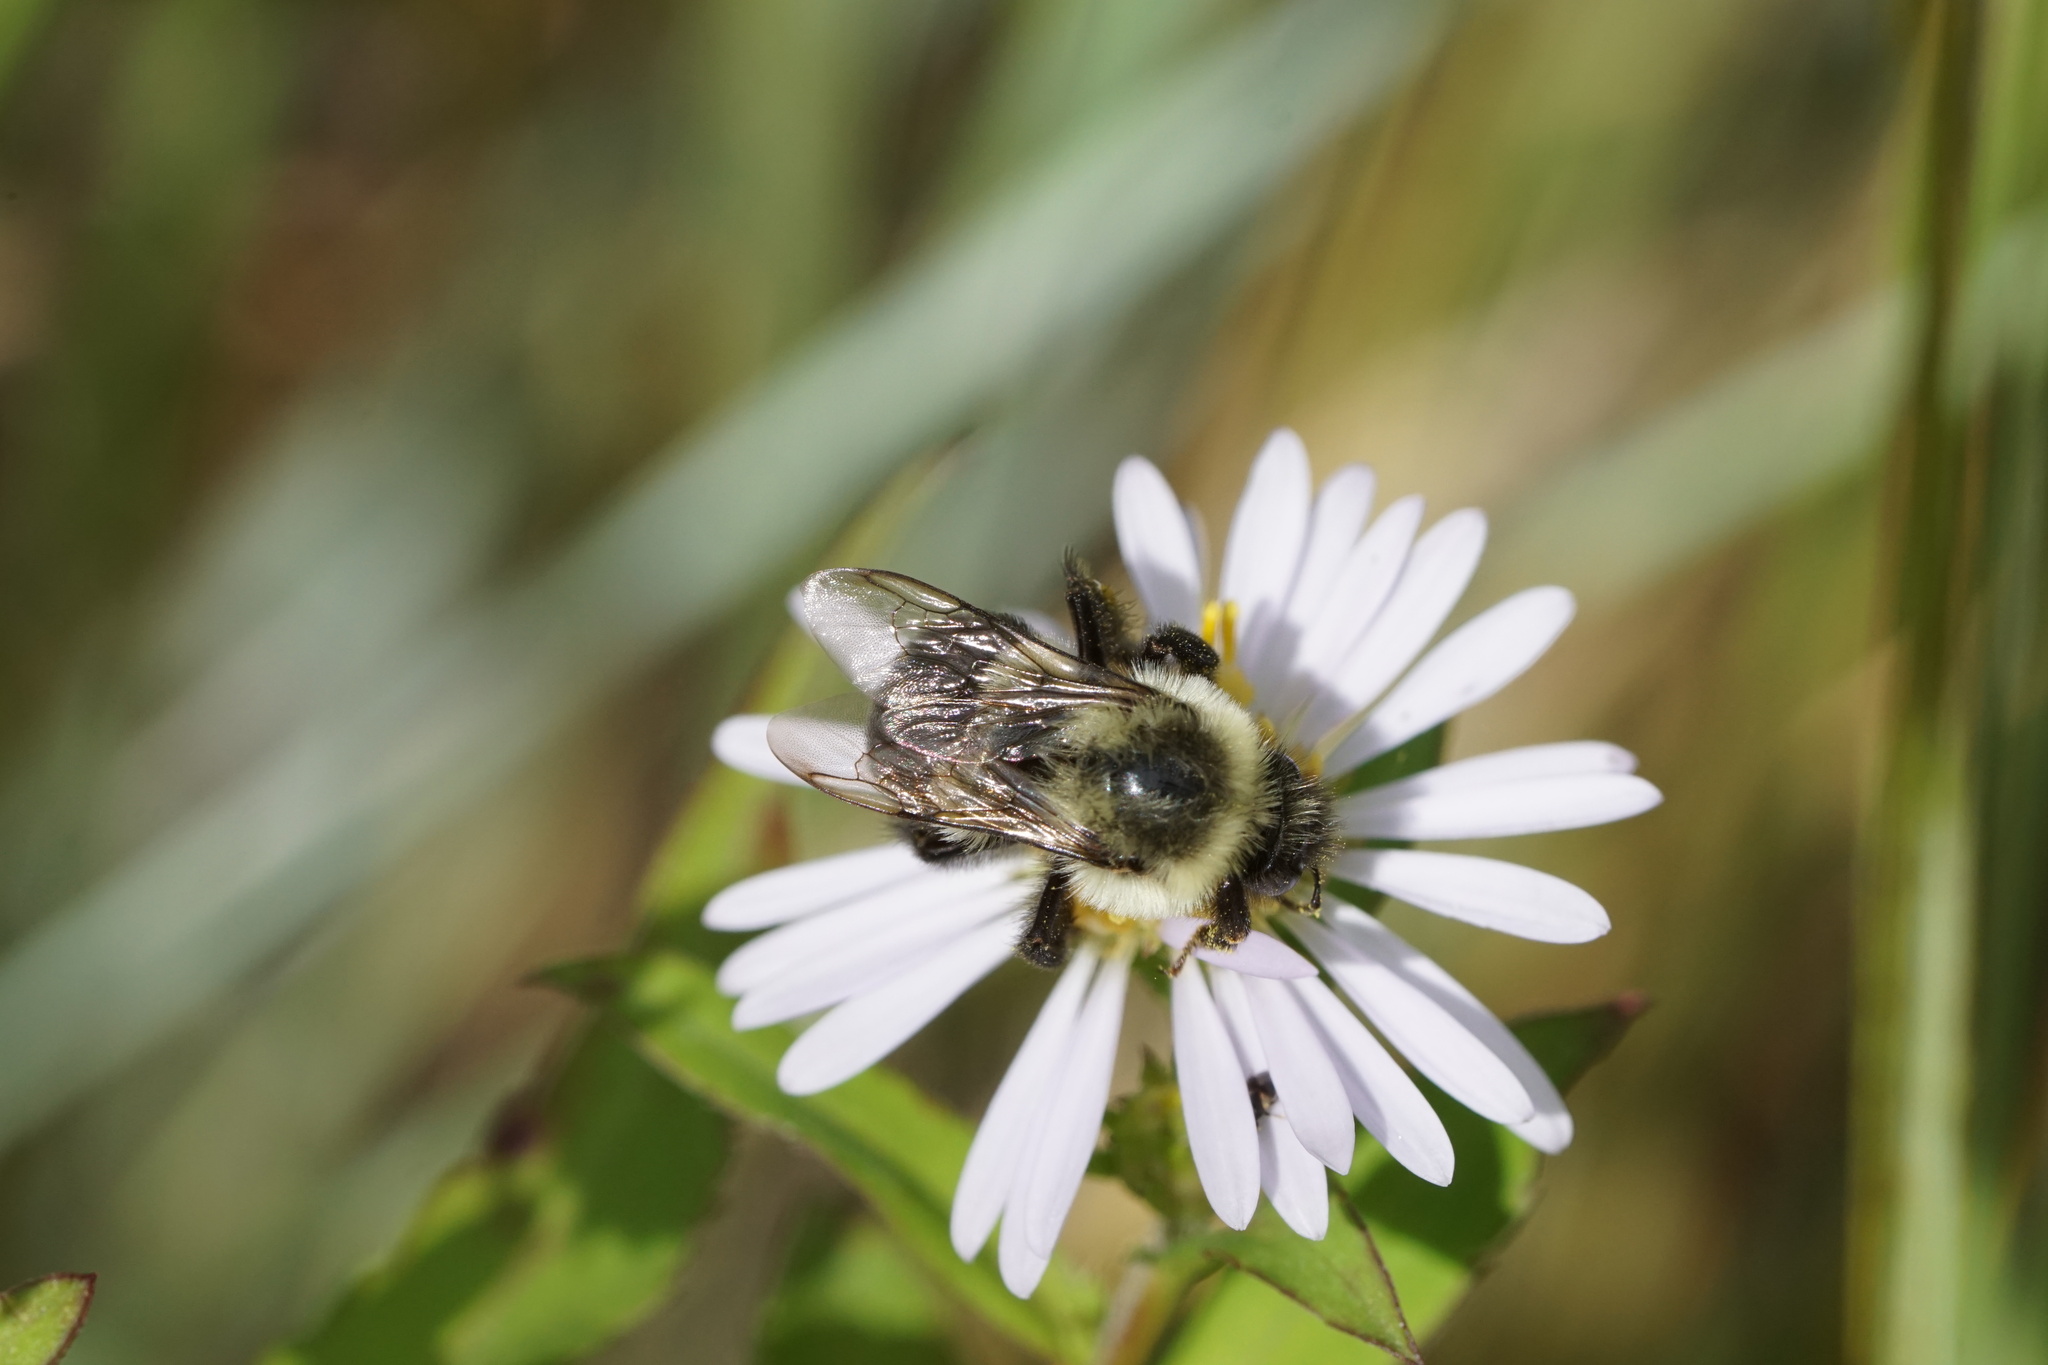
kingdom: Animalia
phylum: Arthropoda
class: Insecta
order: Hymenoptera
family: Apidae
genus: Bombus
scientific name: Bombus impatiens
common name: Common eastern bumble bee
